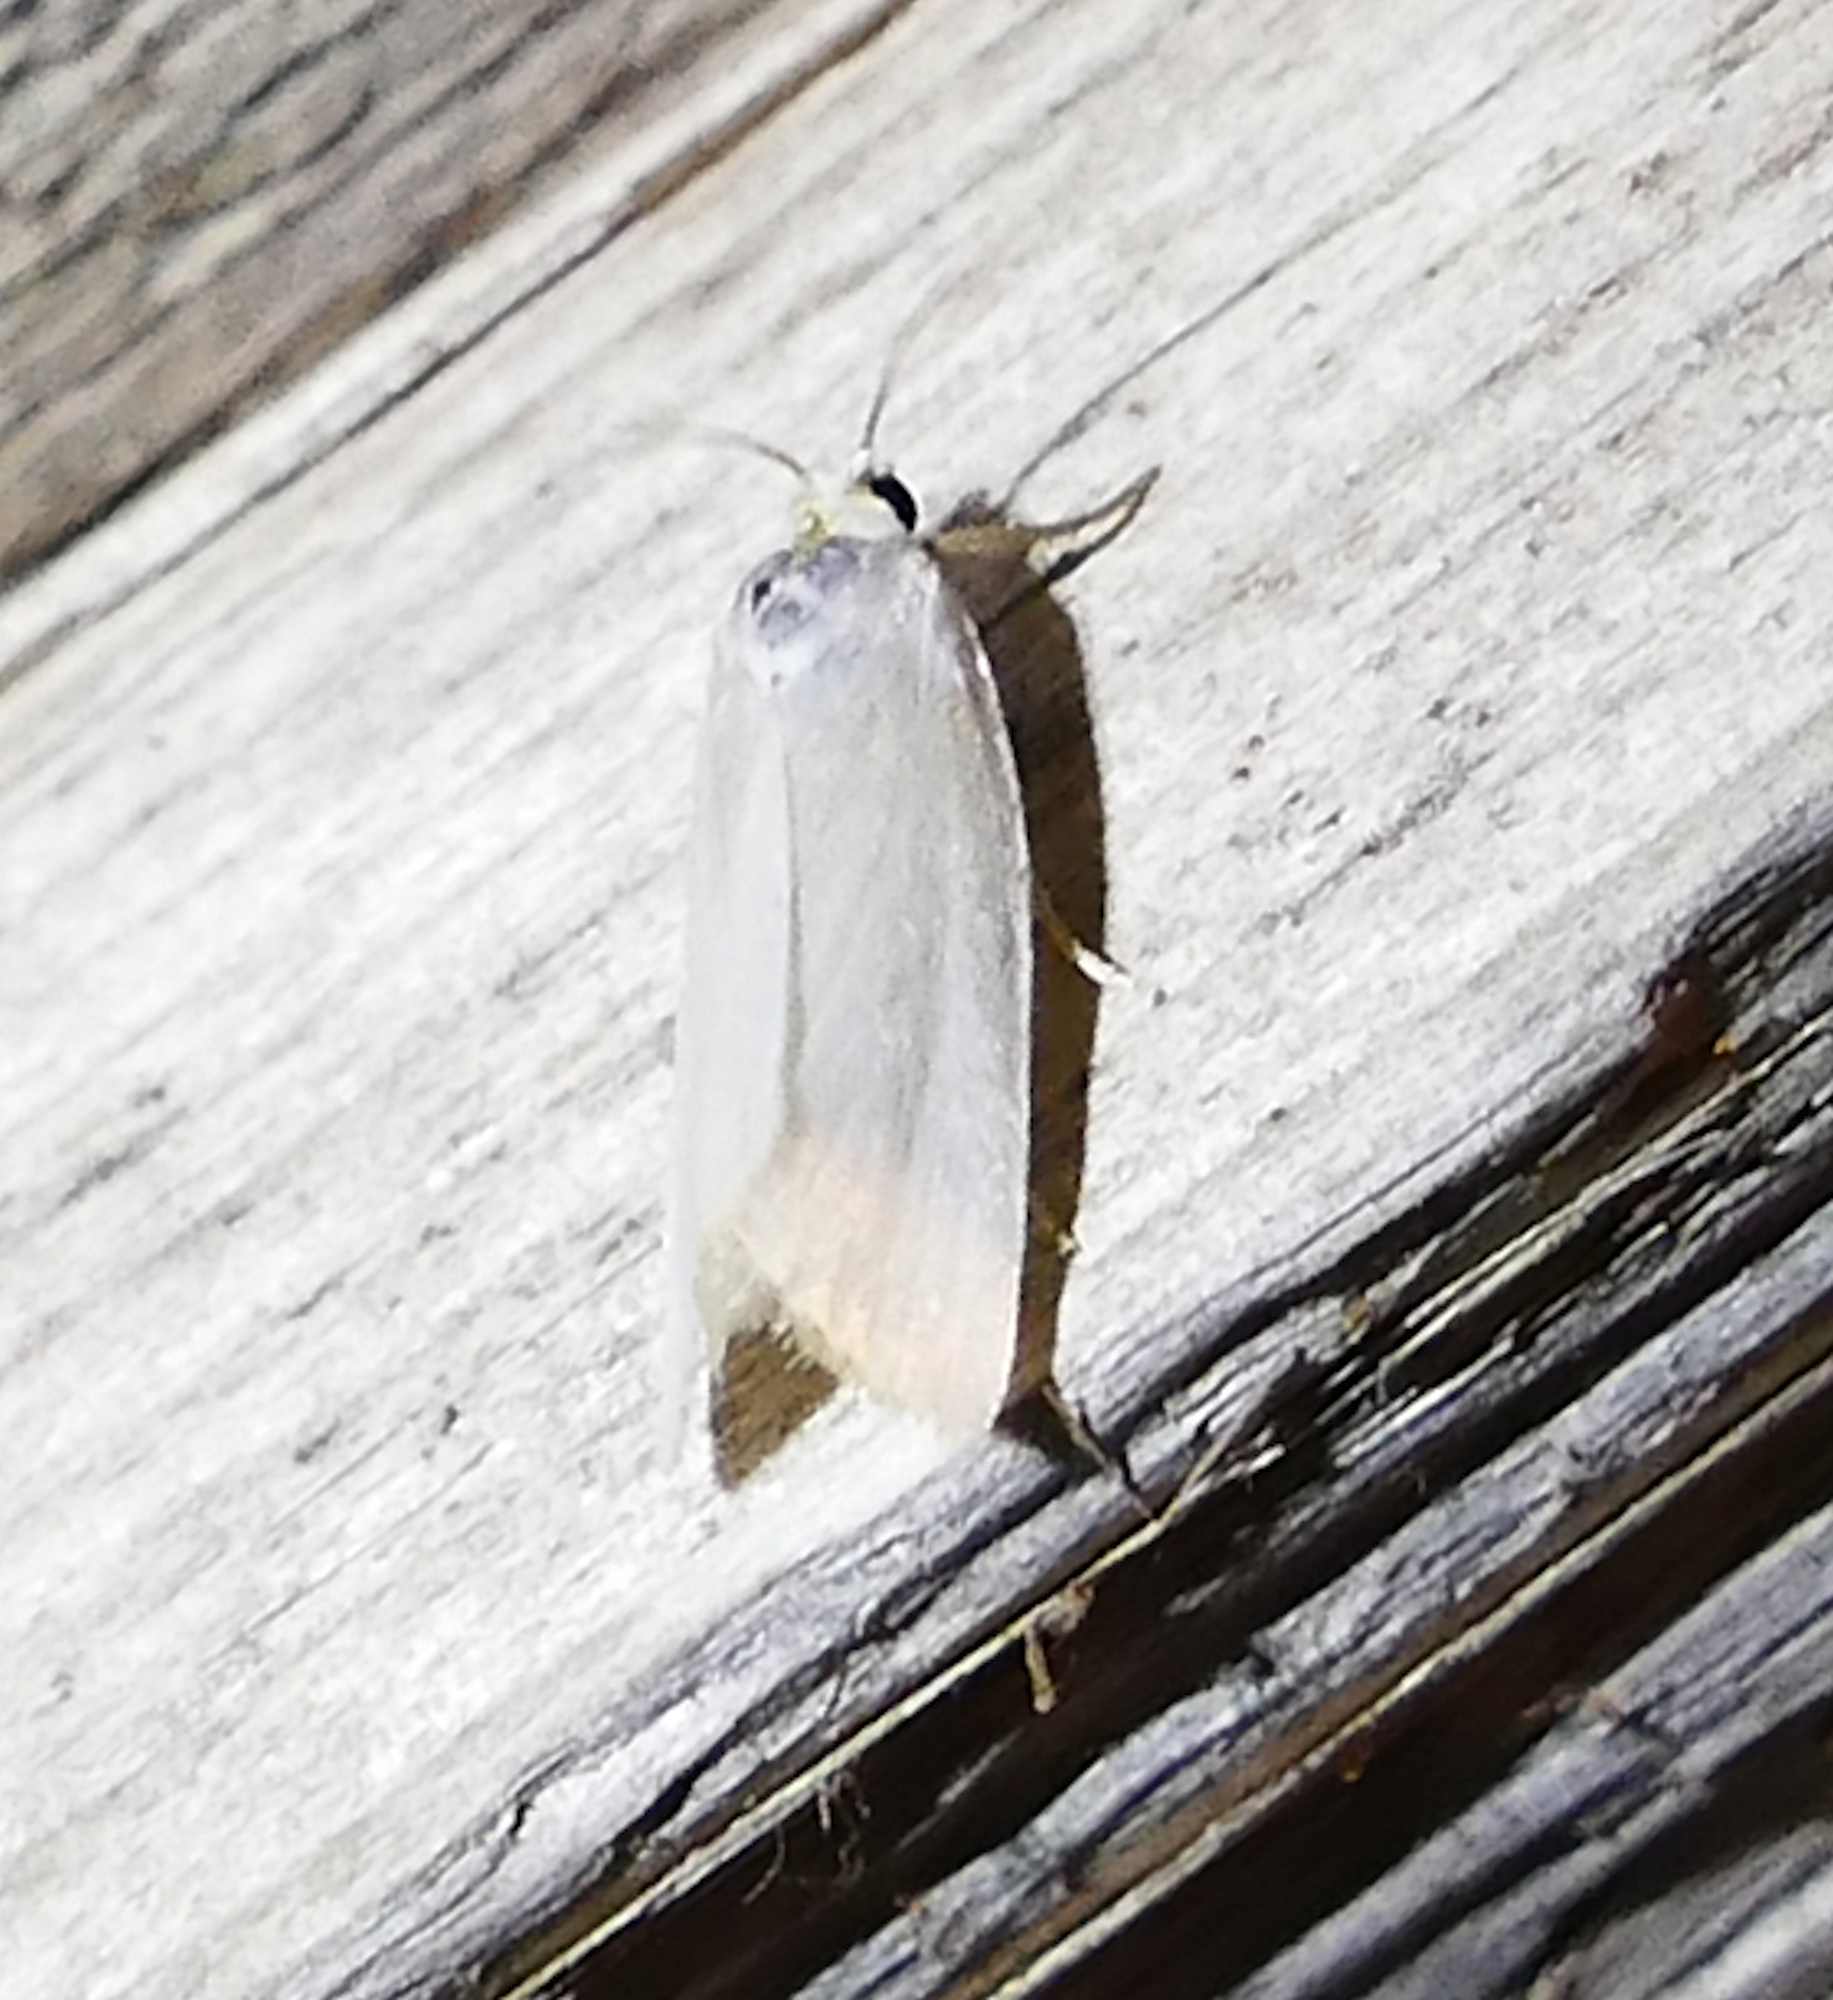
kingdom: Animalia
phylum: Arthropoda
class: Insecta
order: Lepidoptera
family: Crambidae
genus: Rupela
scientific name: Rupela tinctella
